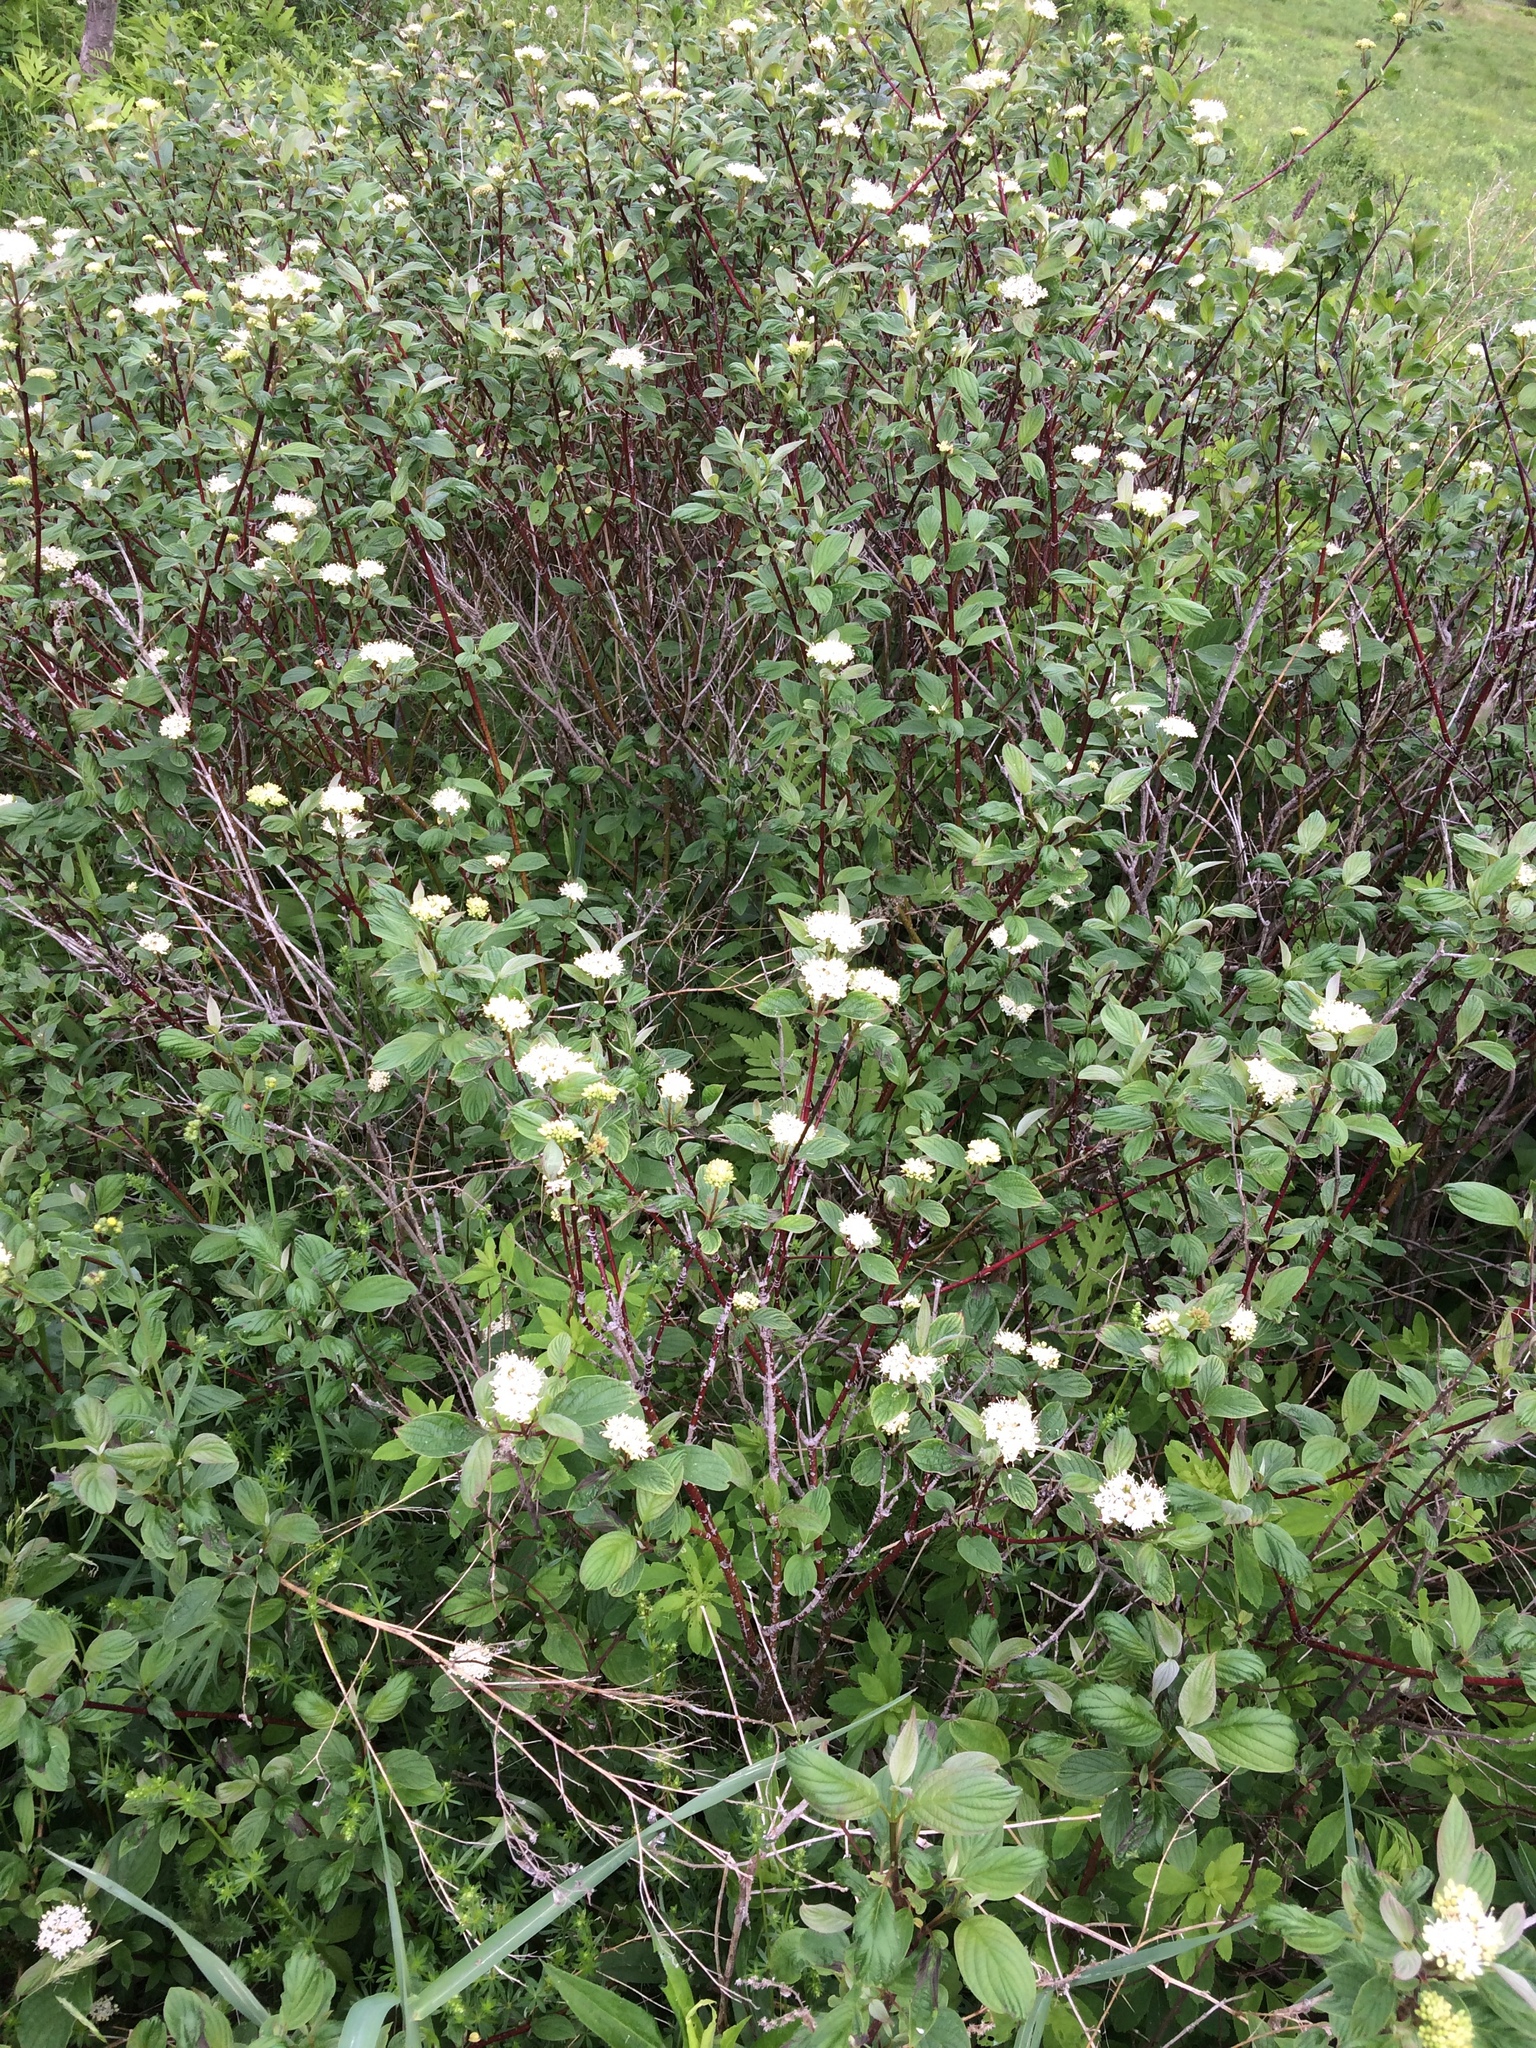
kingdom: Plantae
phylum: Tracheophyta
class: Magnoliopsida
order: Cornales
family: Cornaceae
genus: Cornus
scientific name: Cornus sericea
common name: Red-osier dogwood
